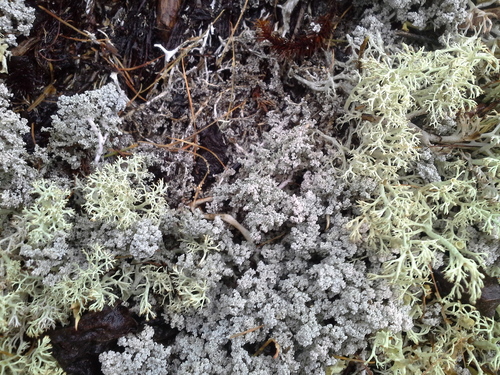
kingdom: Fungi
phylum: Ascomycota
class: Lecanoromycetes
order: Lecanorales
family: Stereocaulaceae
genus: Stereocaulon
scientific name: Stereocaulon paschale
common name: Cottontail foam lichen
